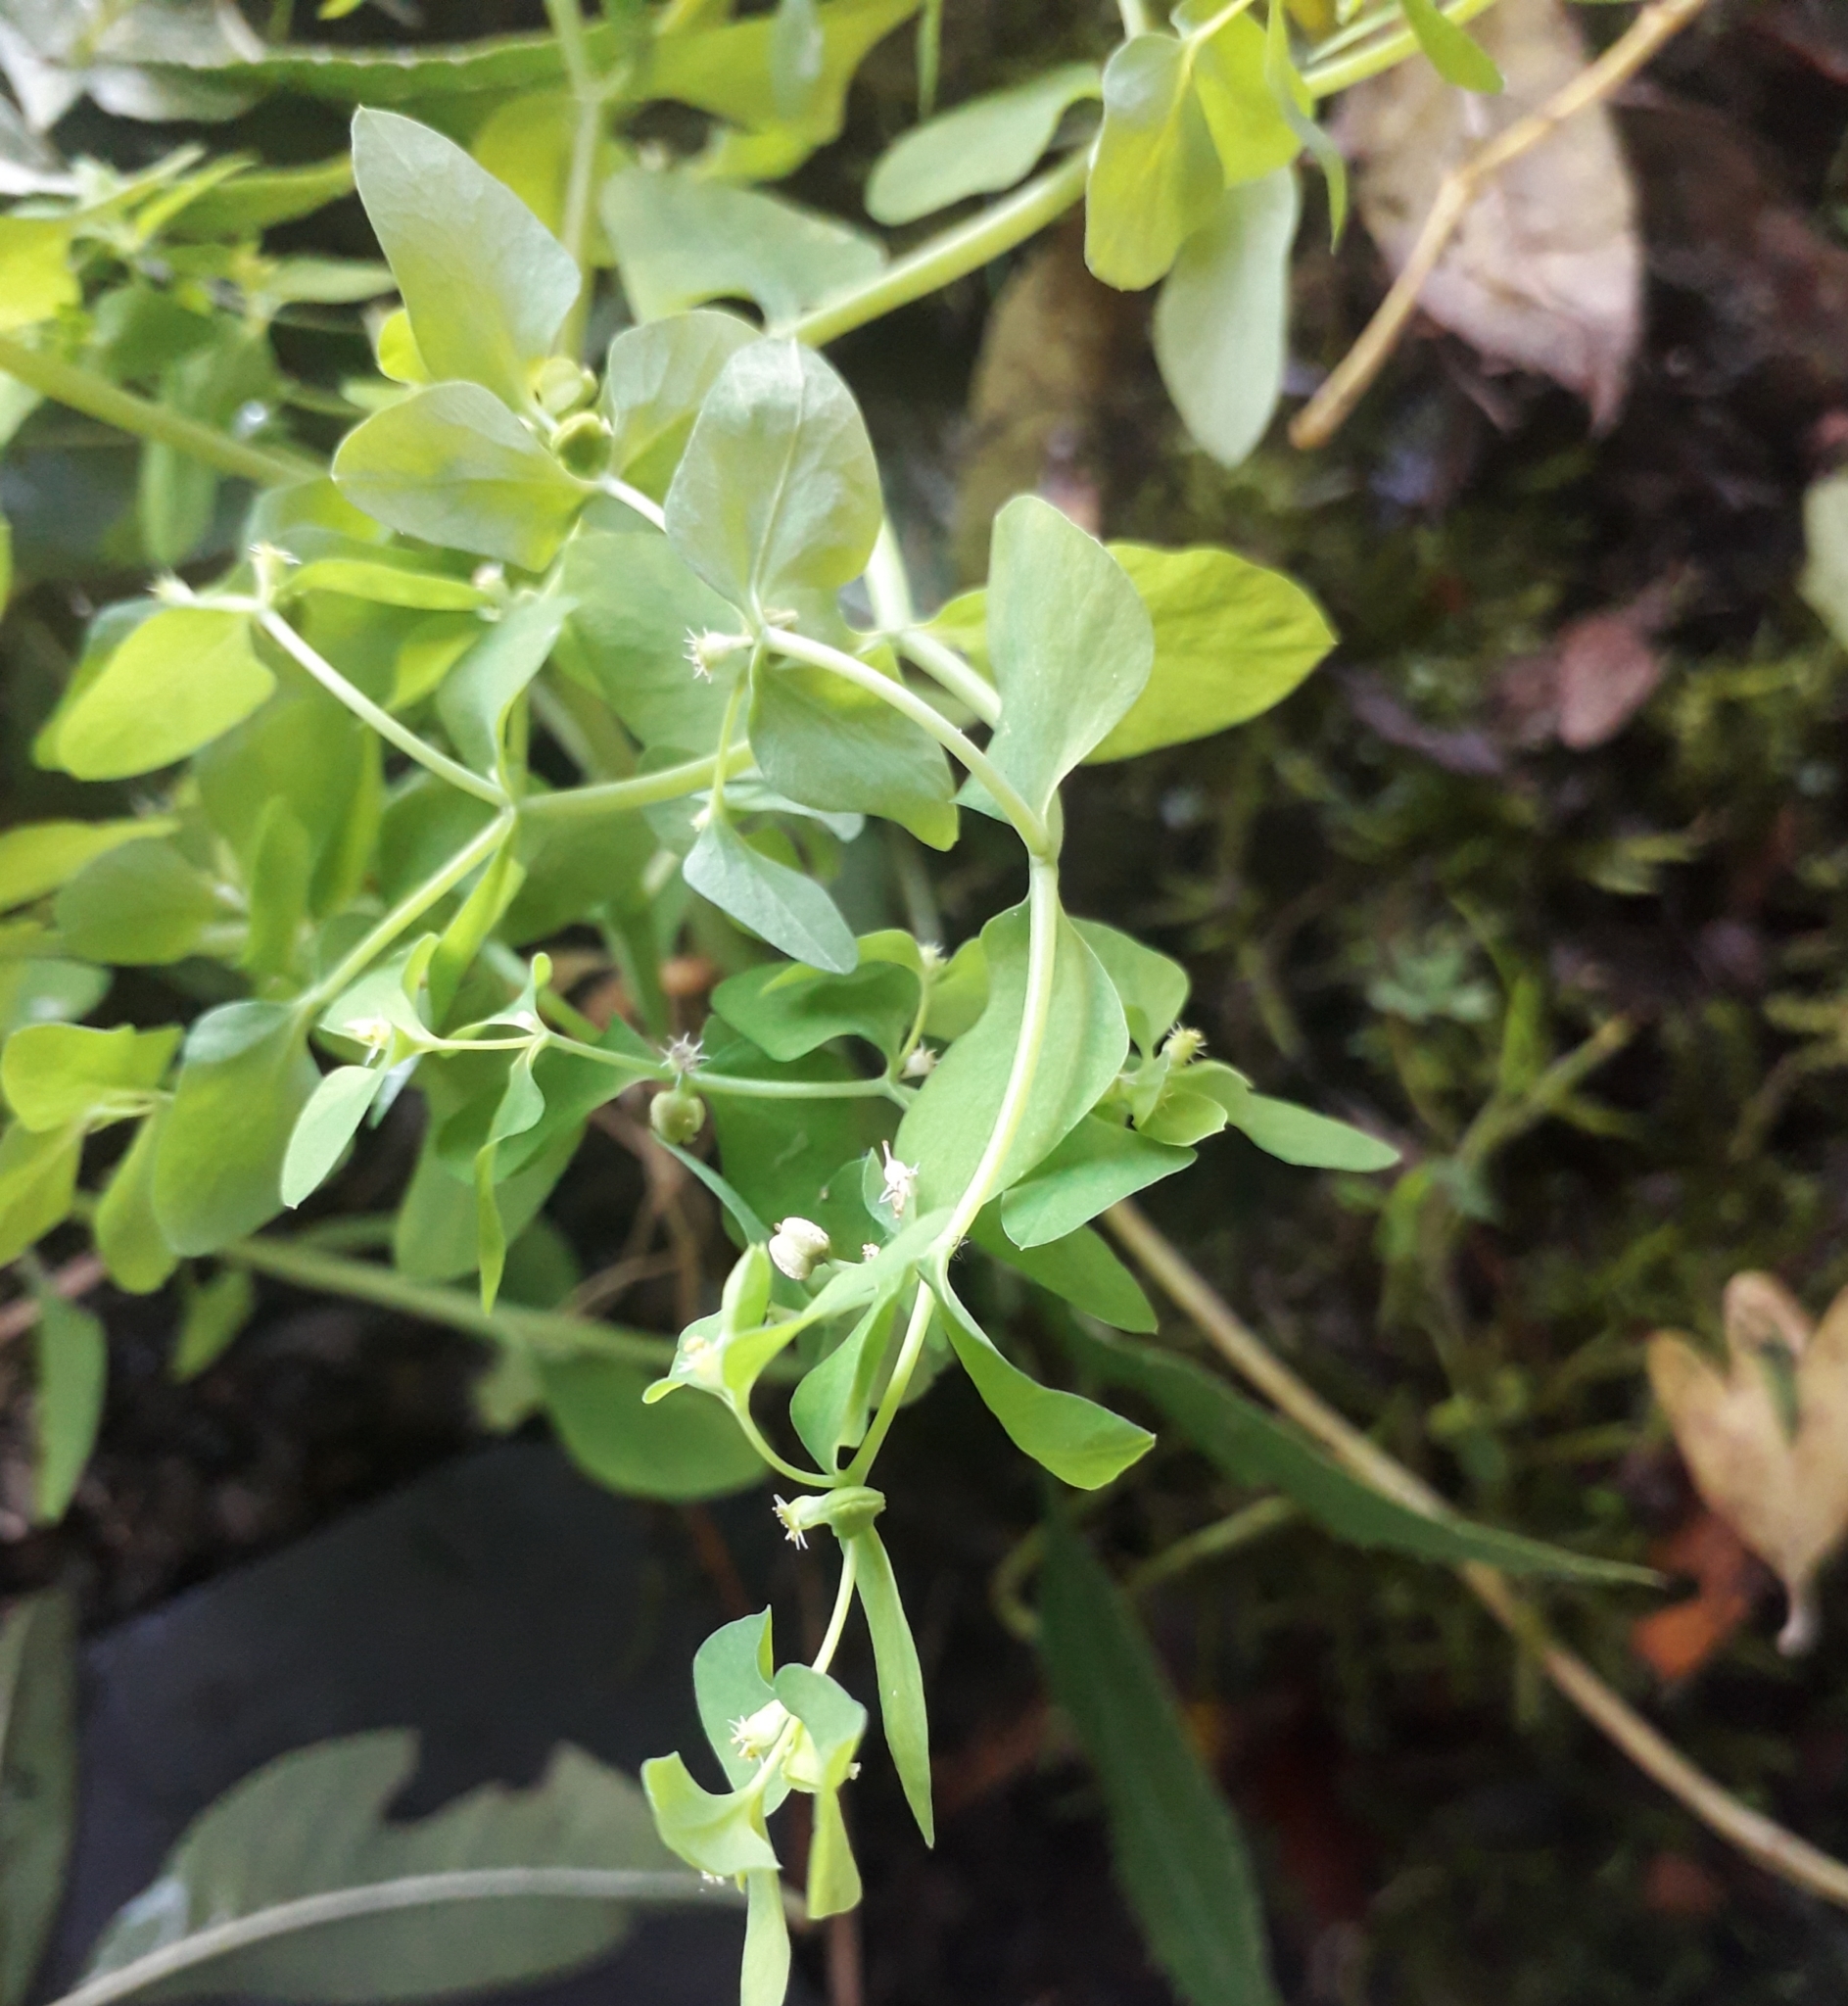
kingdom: Plantae
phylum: Tracheophyta
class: Magnoliopsida
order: Malpighiales
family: Euphorbiaceae
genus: Euphorbia
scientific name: Euphorbia peplus
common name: Petty spurge
